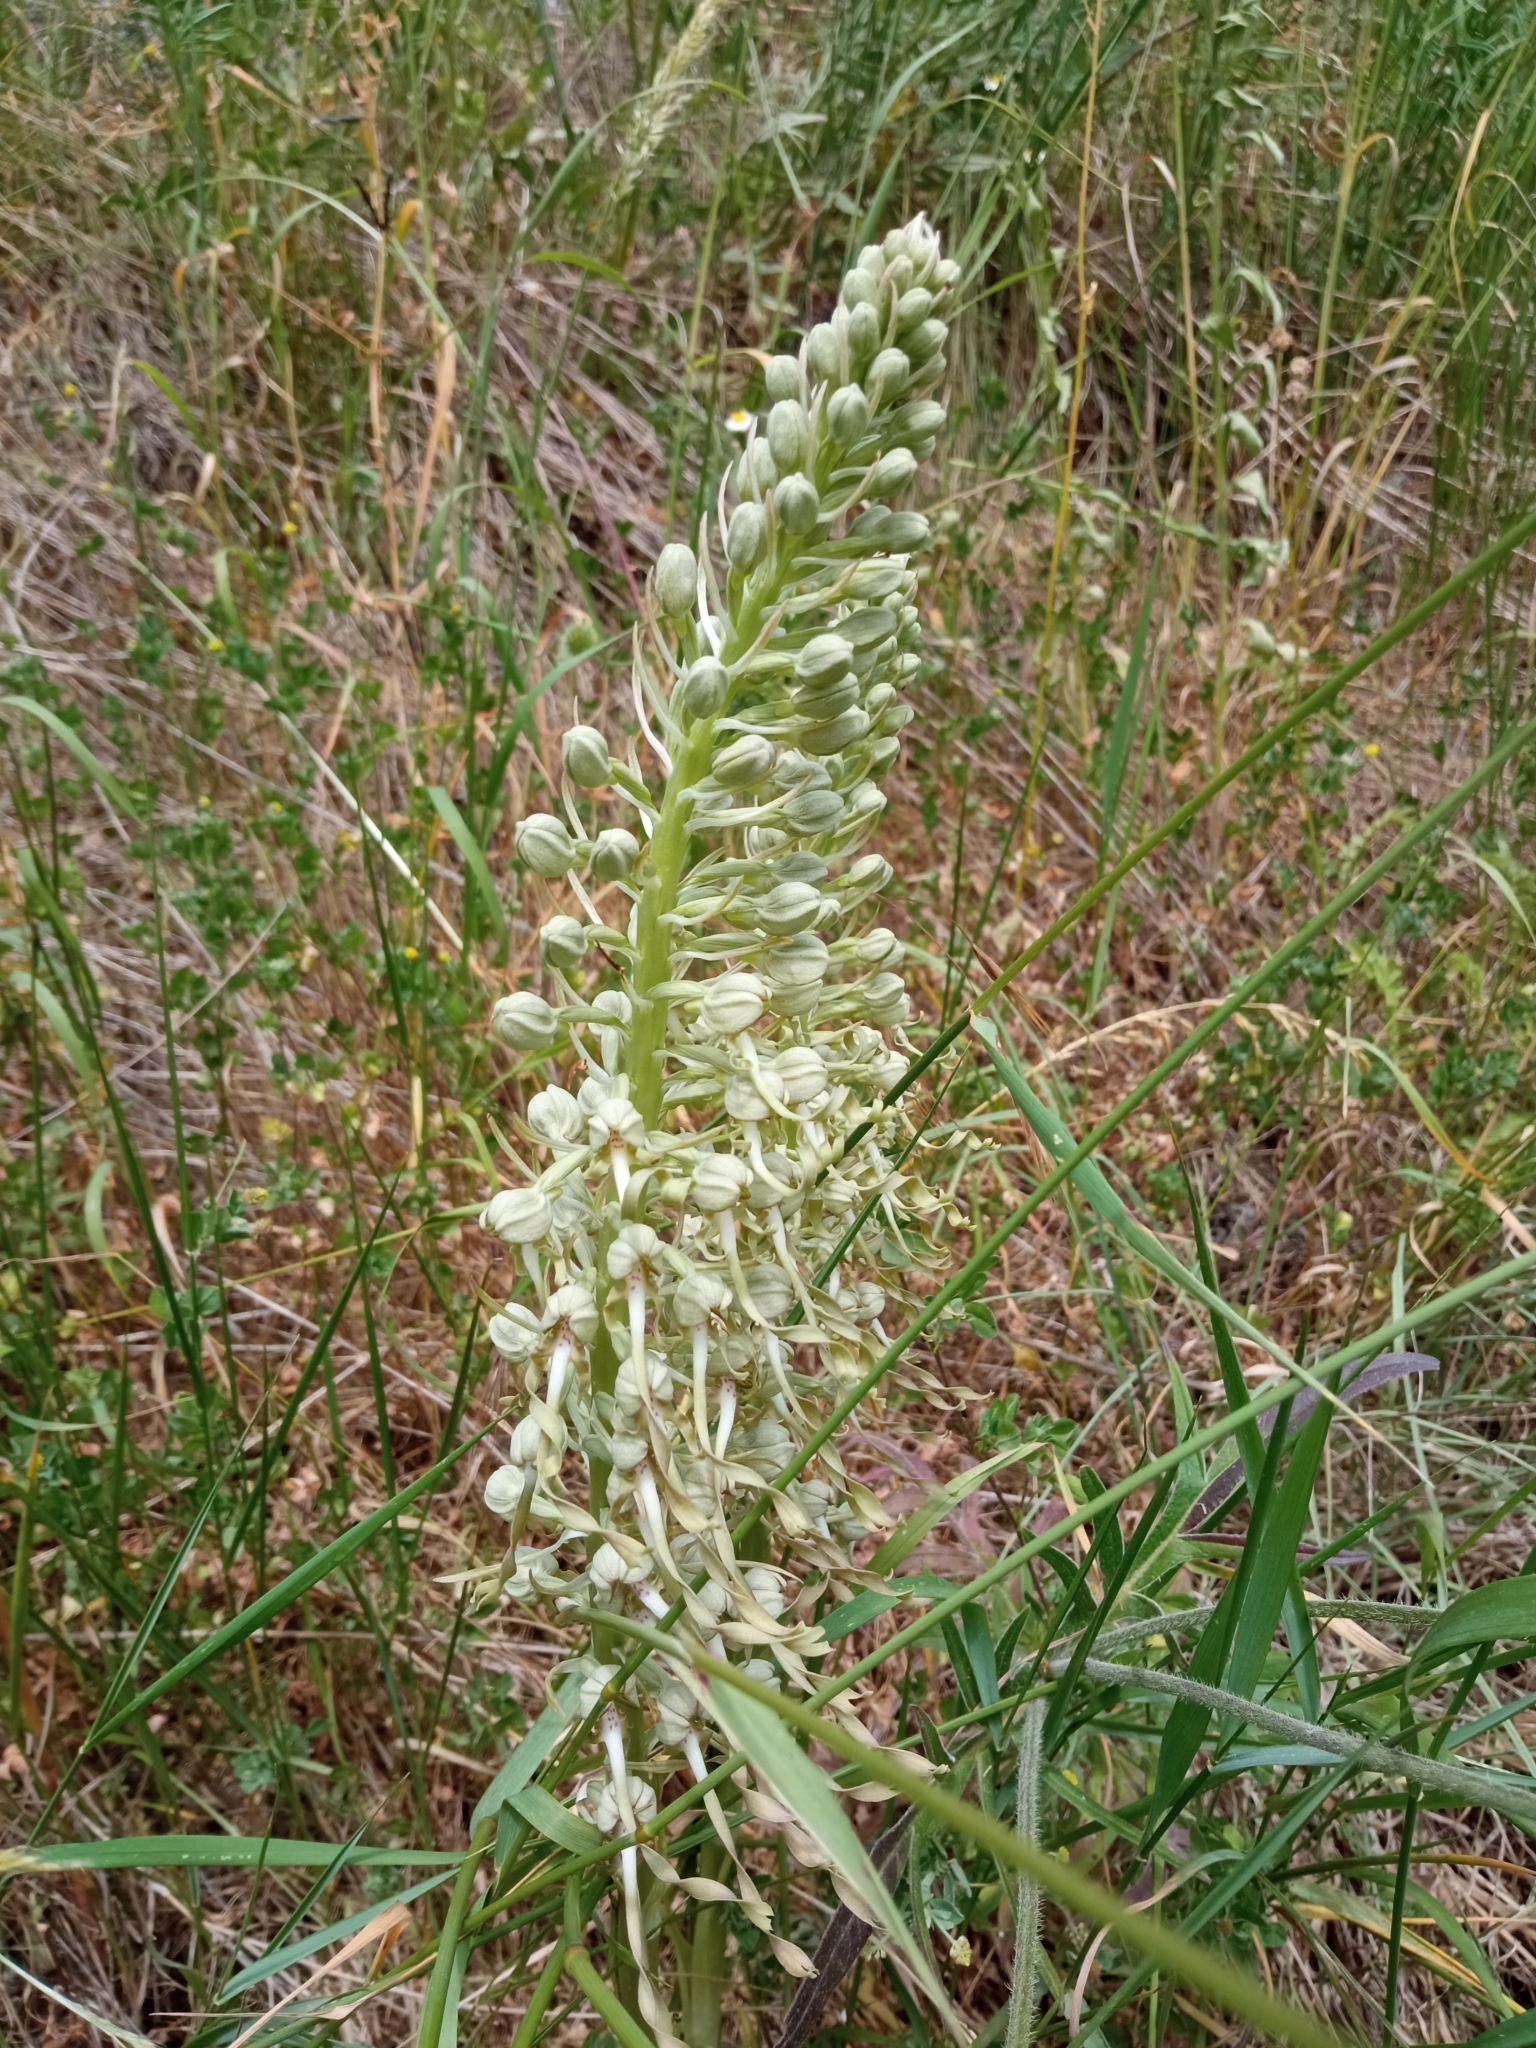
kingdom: Plantae
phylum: Tracheophyta
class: Liliopsida
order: Asparagales
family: Orchidaceae
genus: Himantoglossum
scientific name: Himantoglossum hircinum
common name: Lizard orchid
